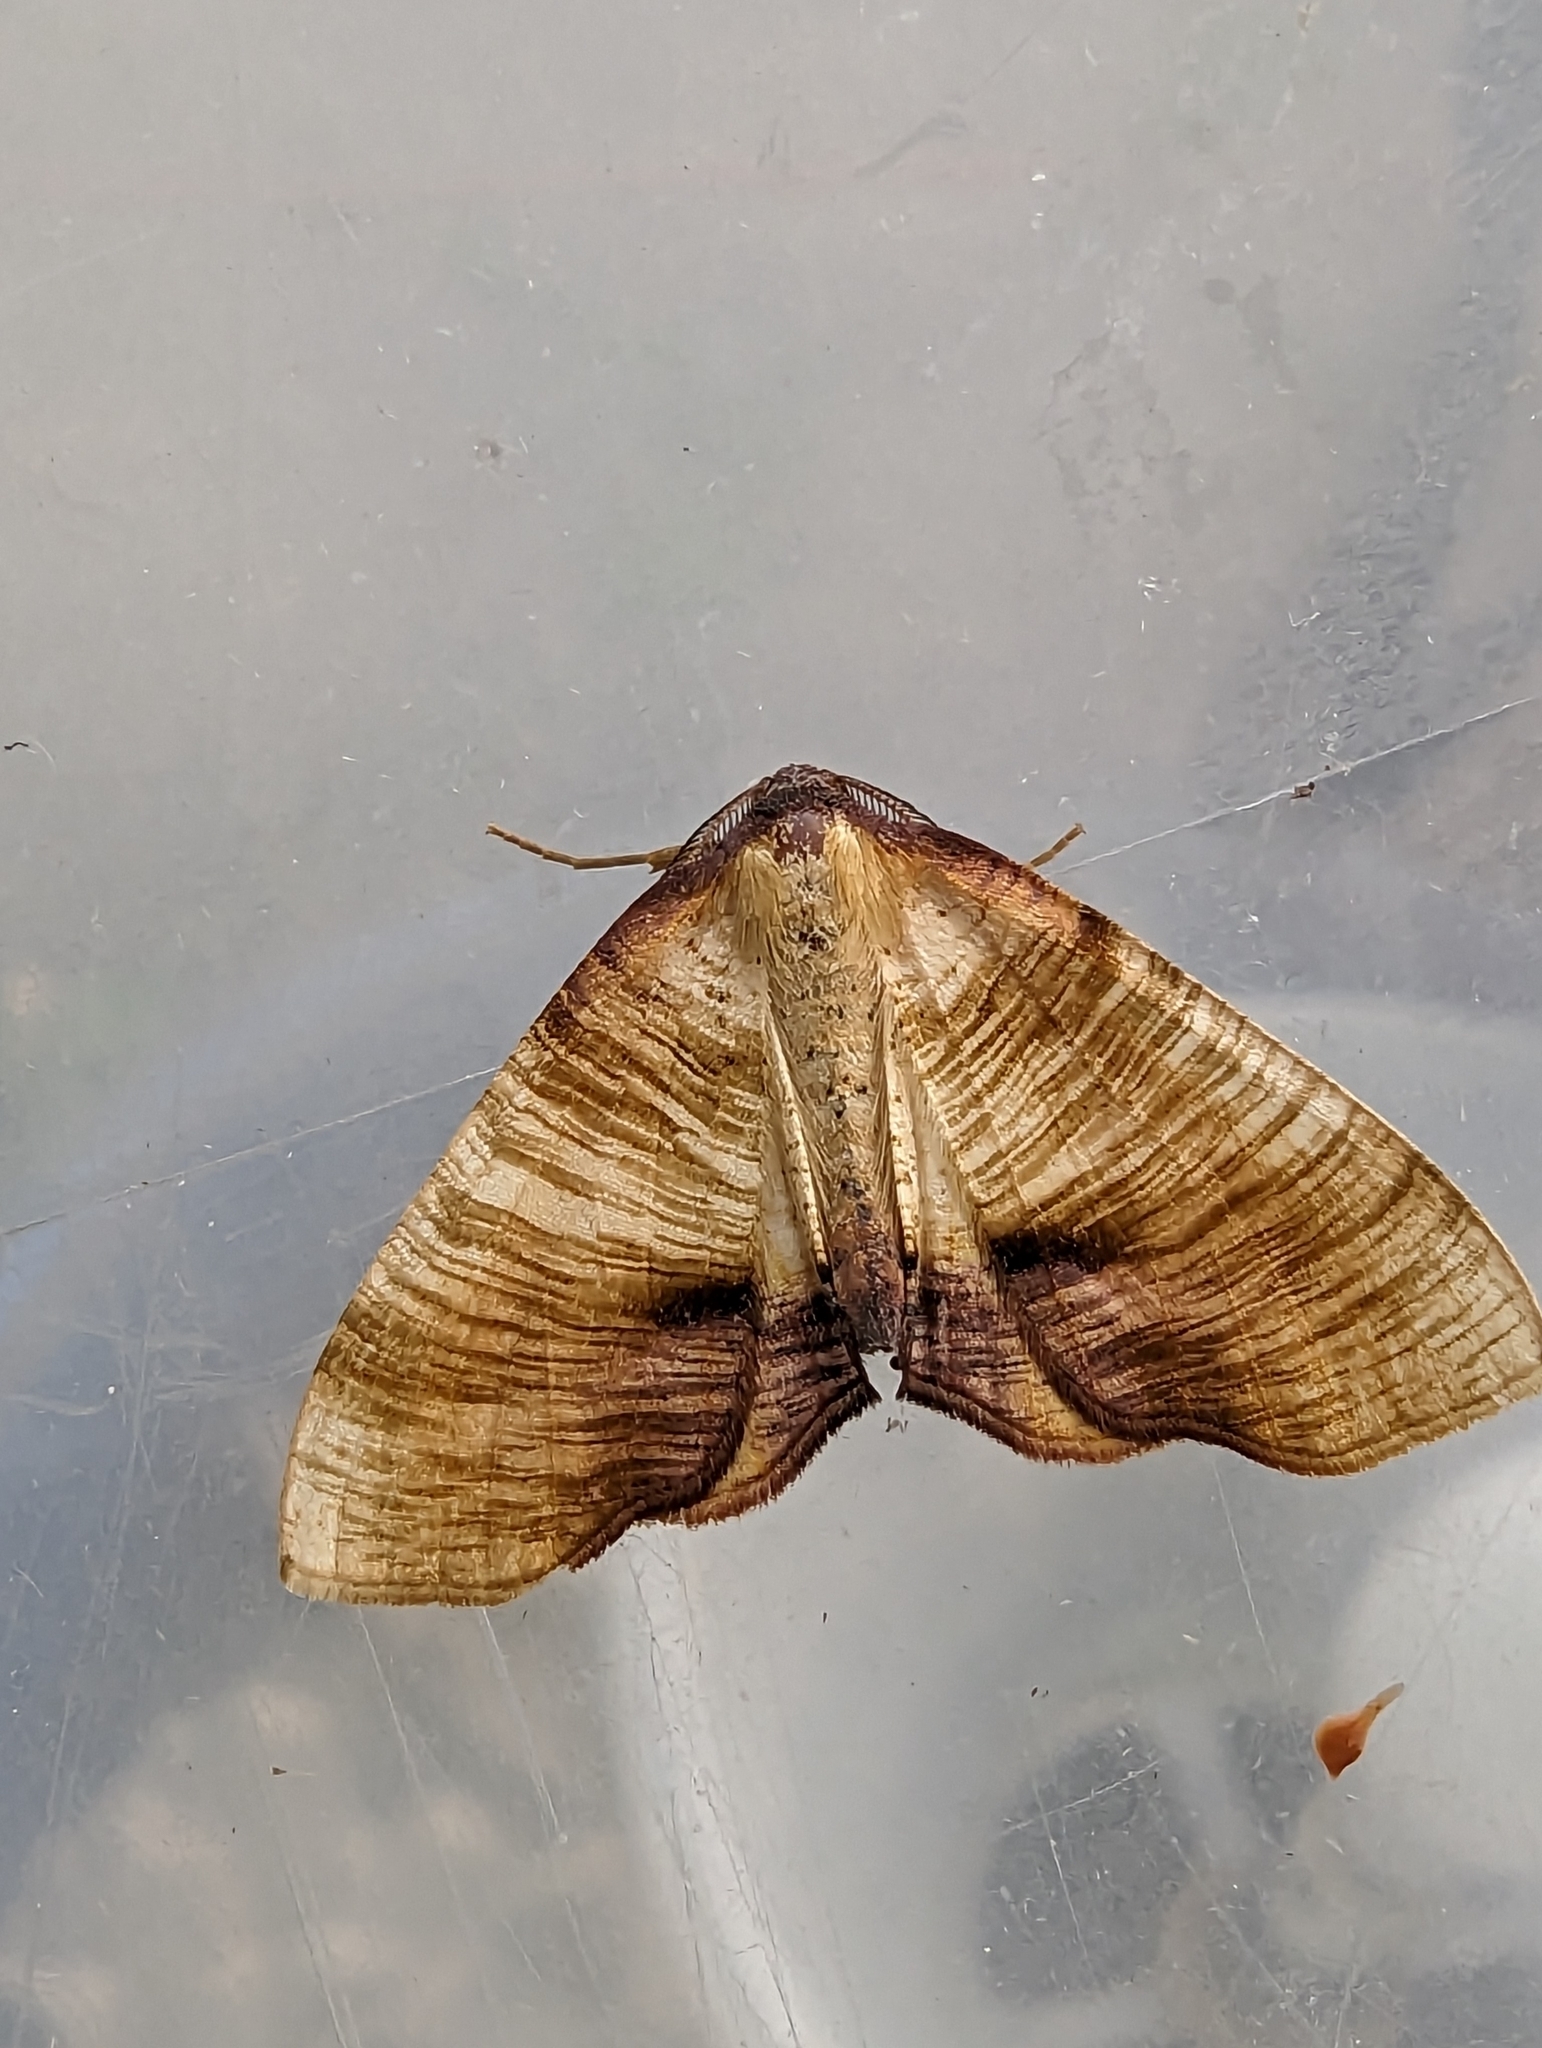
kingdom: Animalia
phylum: Arthropoda
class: Insecta
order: Lepidoptera
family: Geometridae
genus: Plagodis
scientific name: Plagodis dolabraria
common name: Scorched wing
